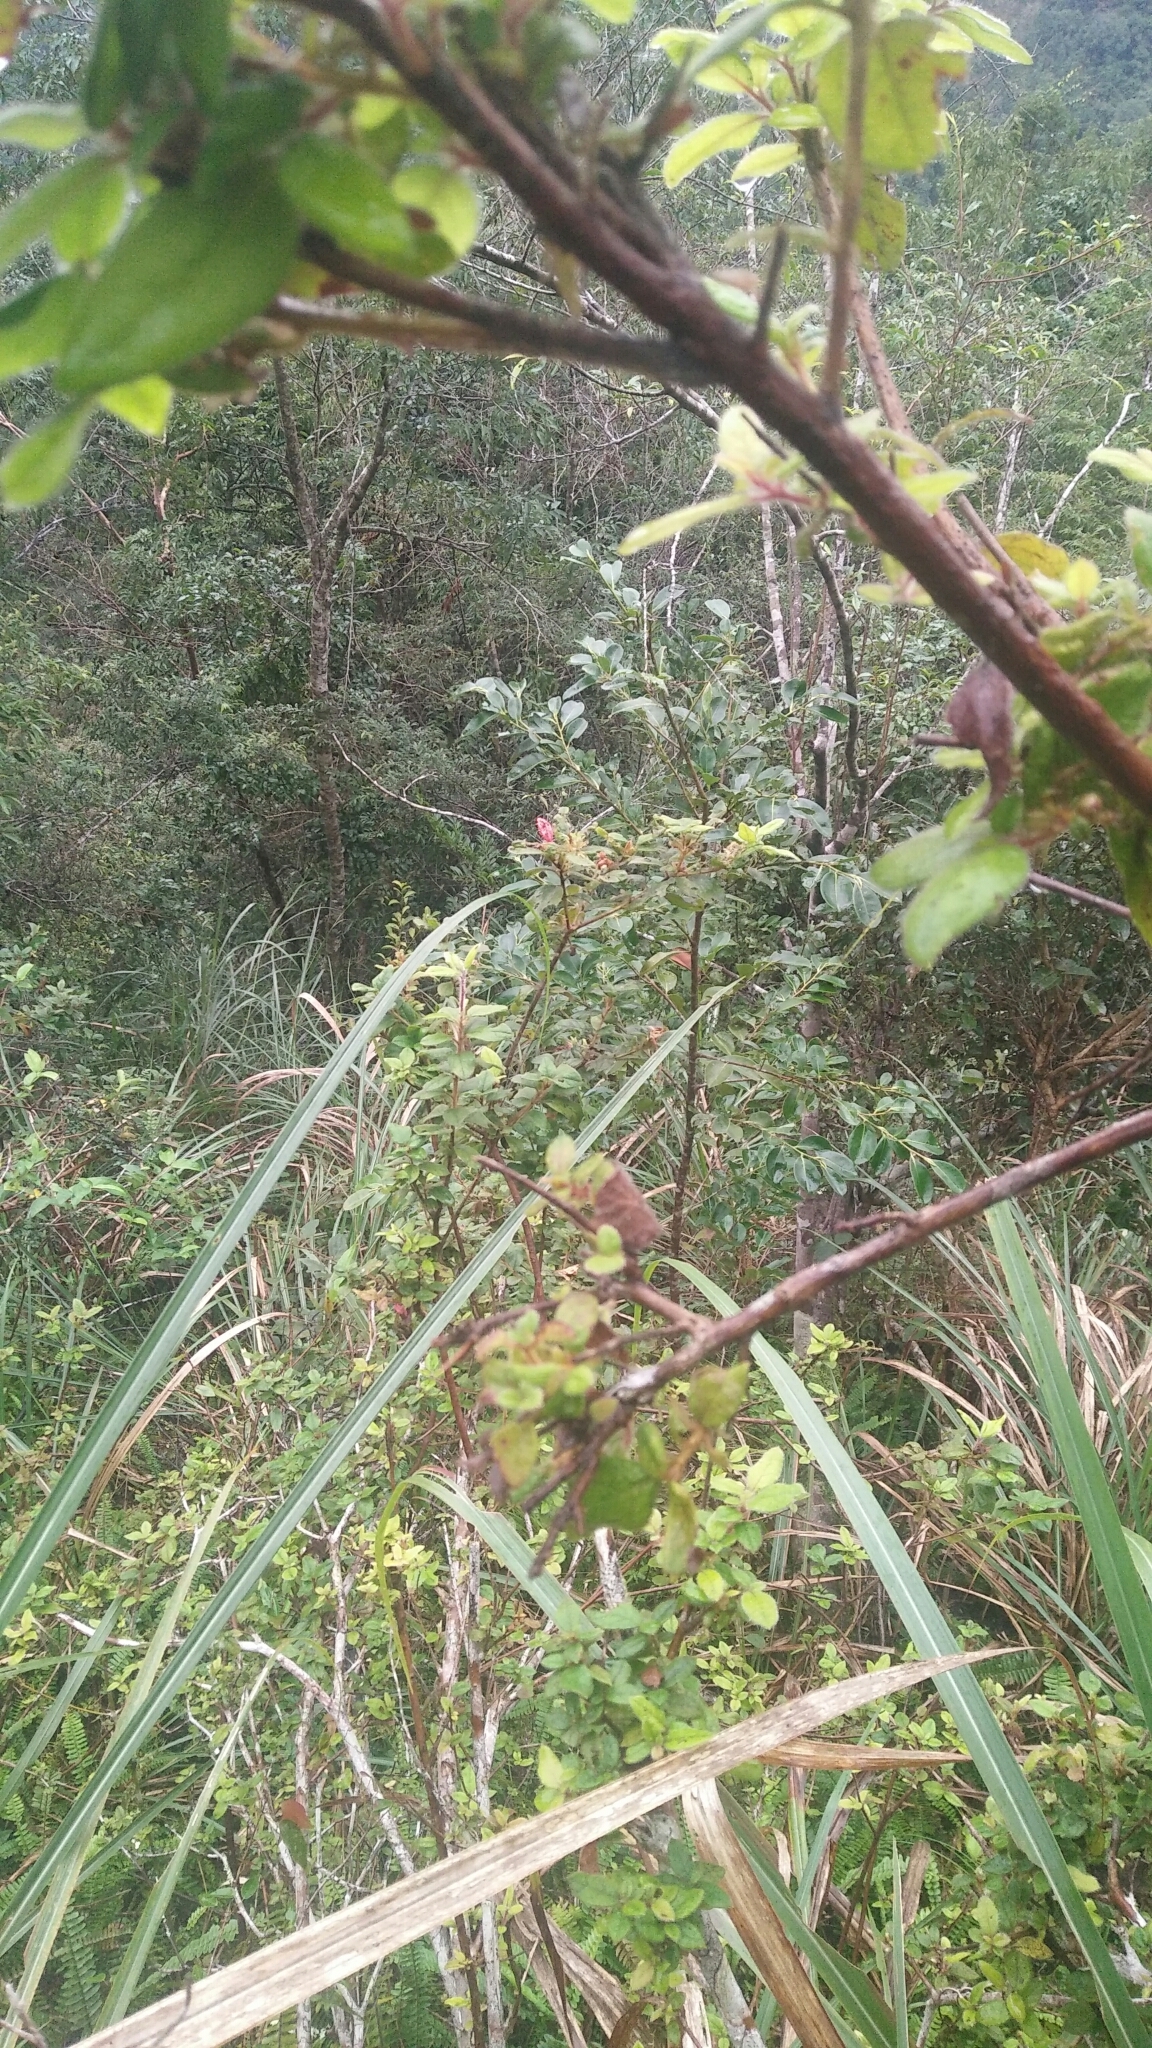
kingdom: Plantae
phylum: Tracheophyta
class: Magnoliopsida
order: Ericales
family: Ericaceae
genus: Rhododendron
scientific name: Rhododendron oldhamii
